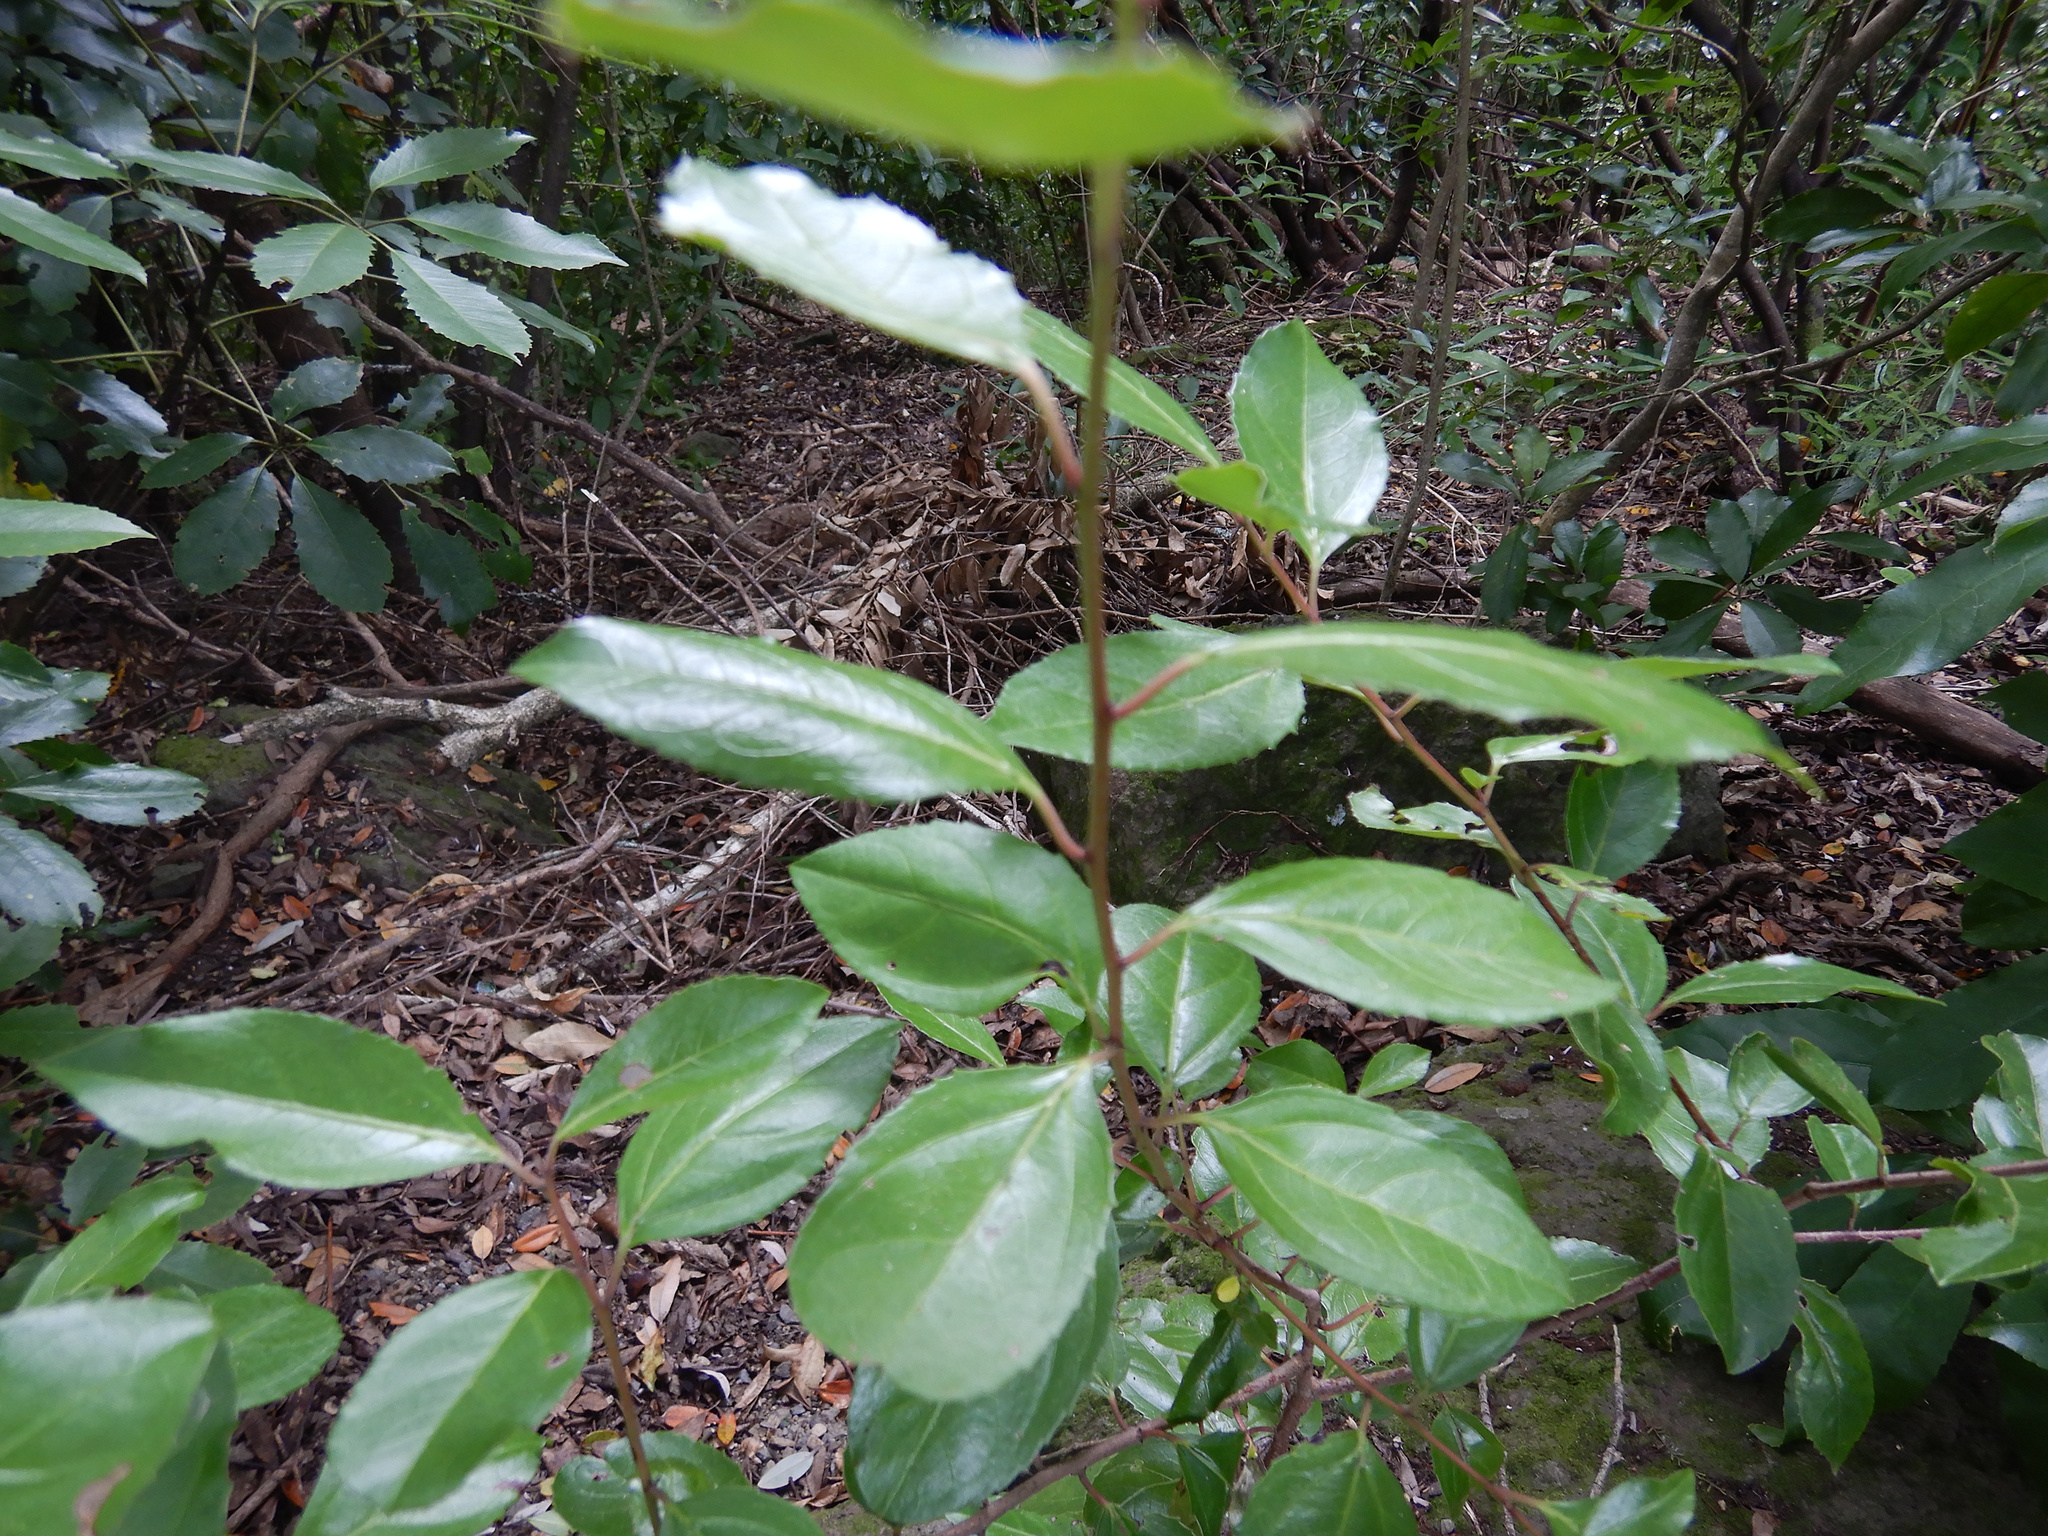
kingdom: Plantae
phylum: Tracheophyta
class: Magnoliopsida
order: Rosales
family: Rhamnaceae
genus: Rhamnus
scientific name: Rhamnus alaternus
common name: Mediterranean buckthorn
